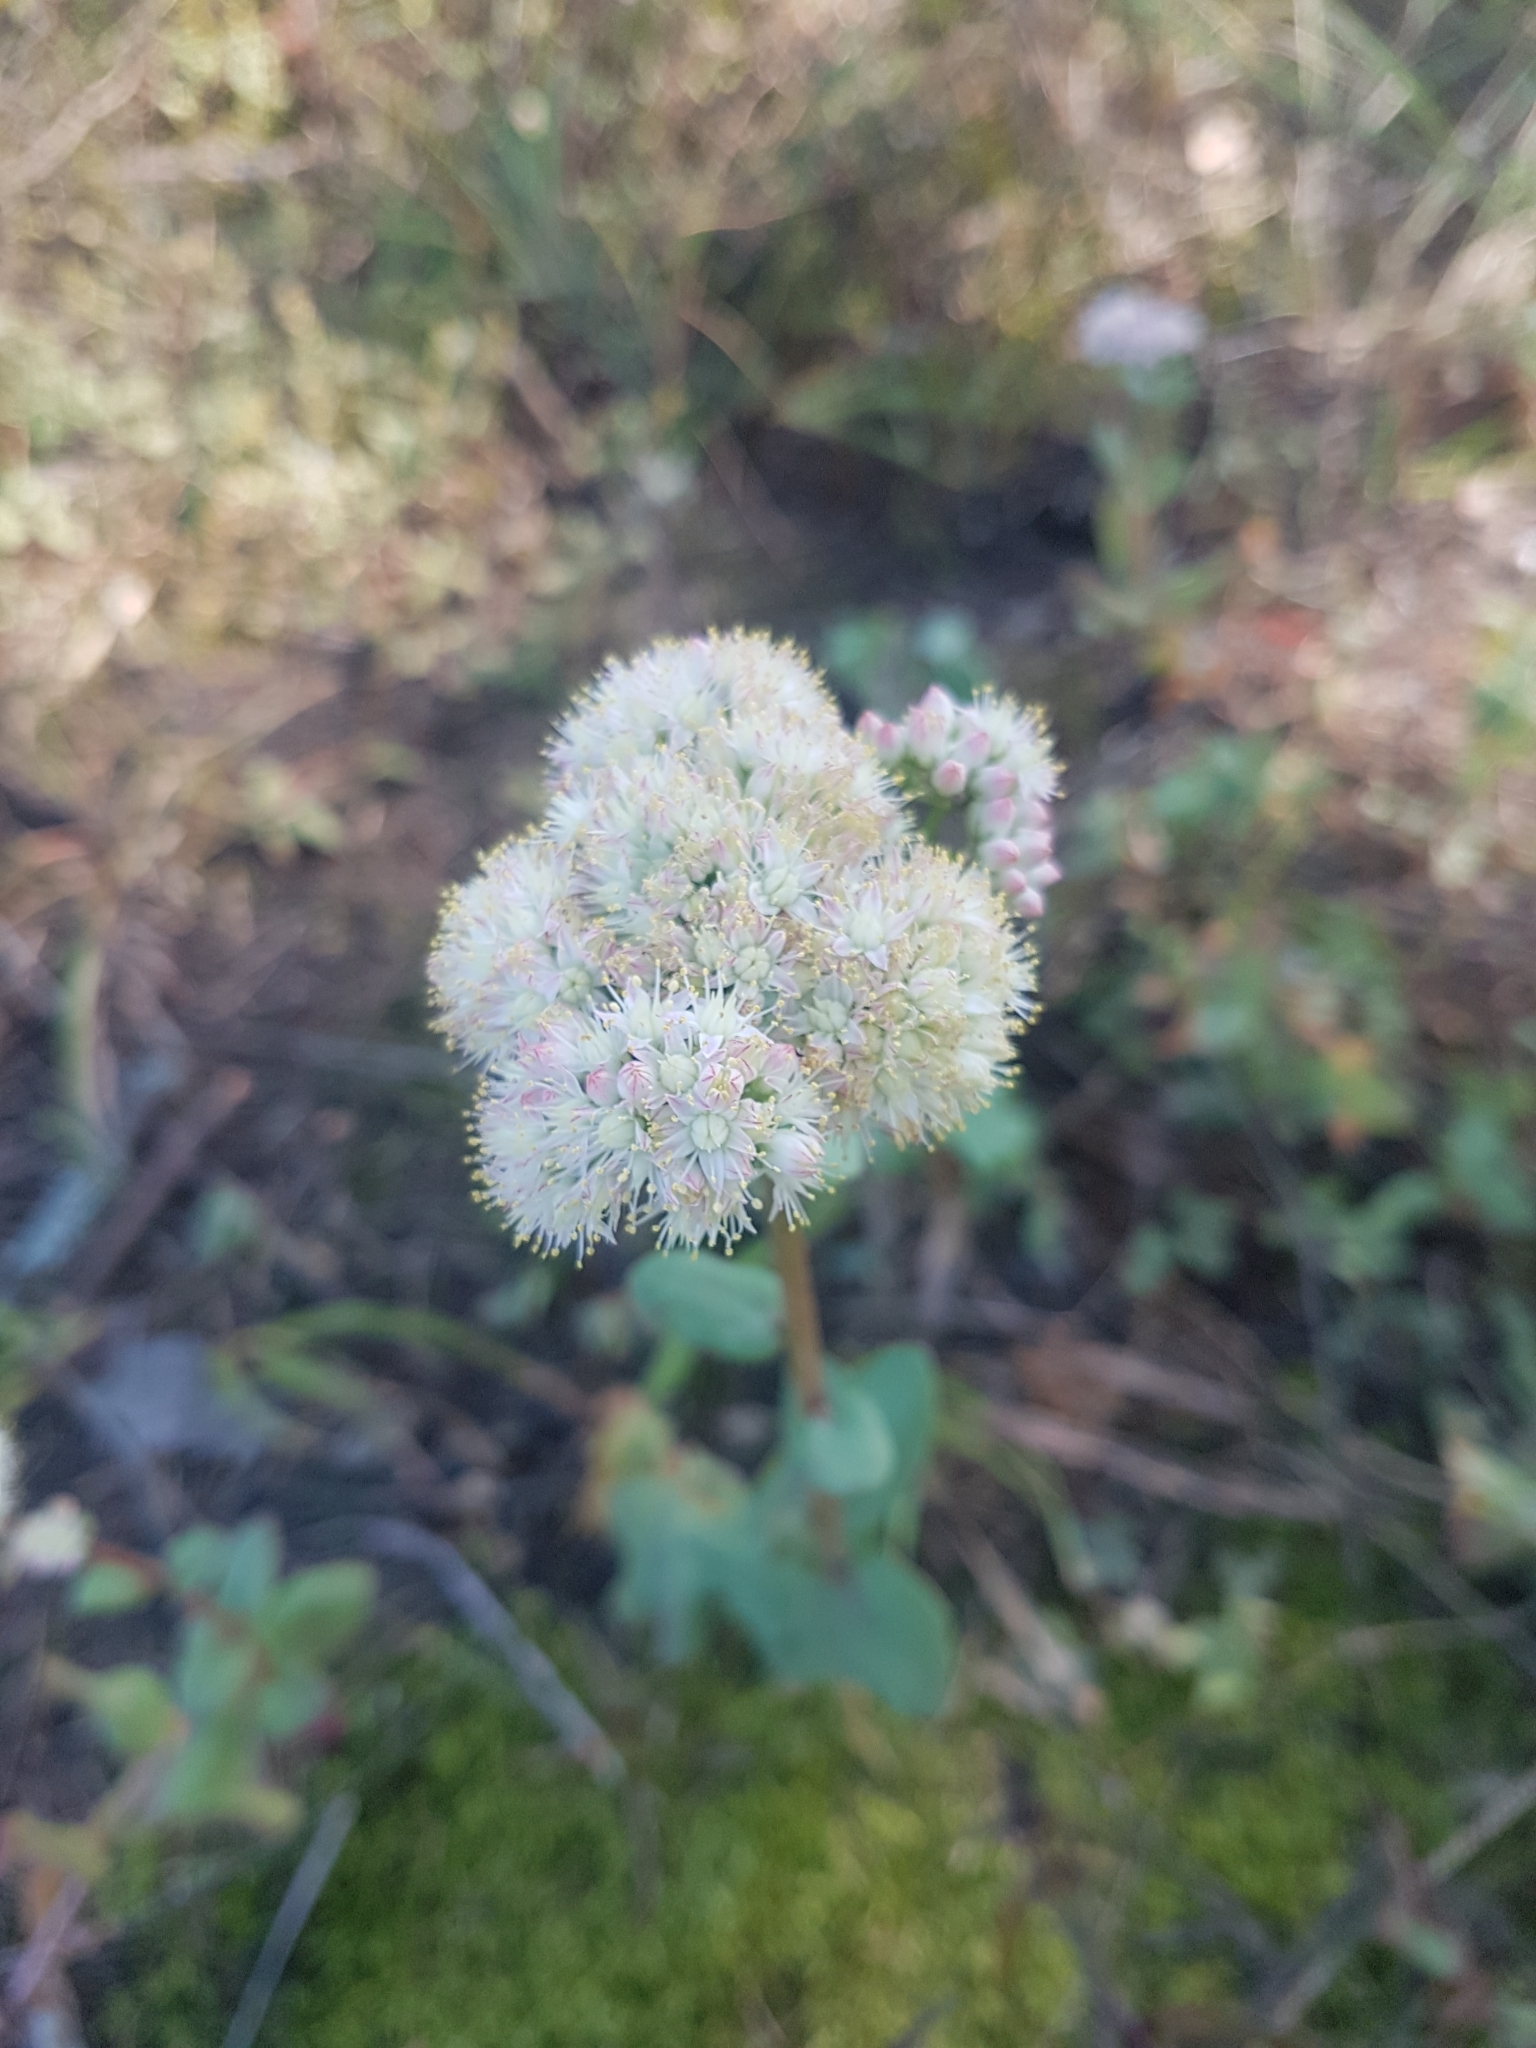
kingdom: Plantae
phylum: Tracheophyta
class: Magnoliopsida
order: Saxifragales
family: Crassulaceae
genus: Hylotelephium
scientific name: Hylotelephium maximum
